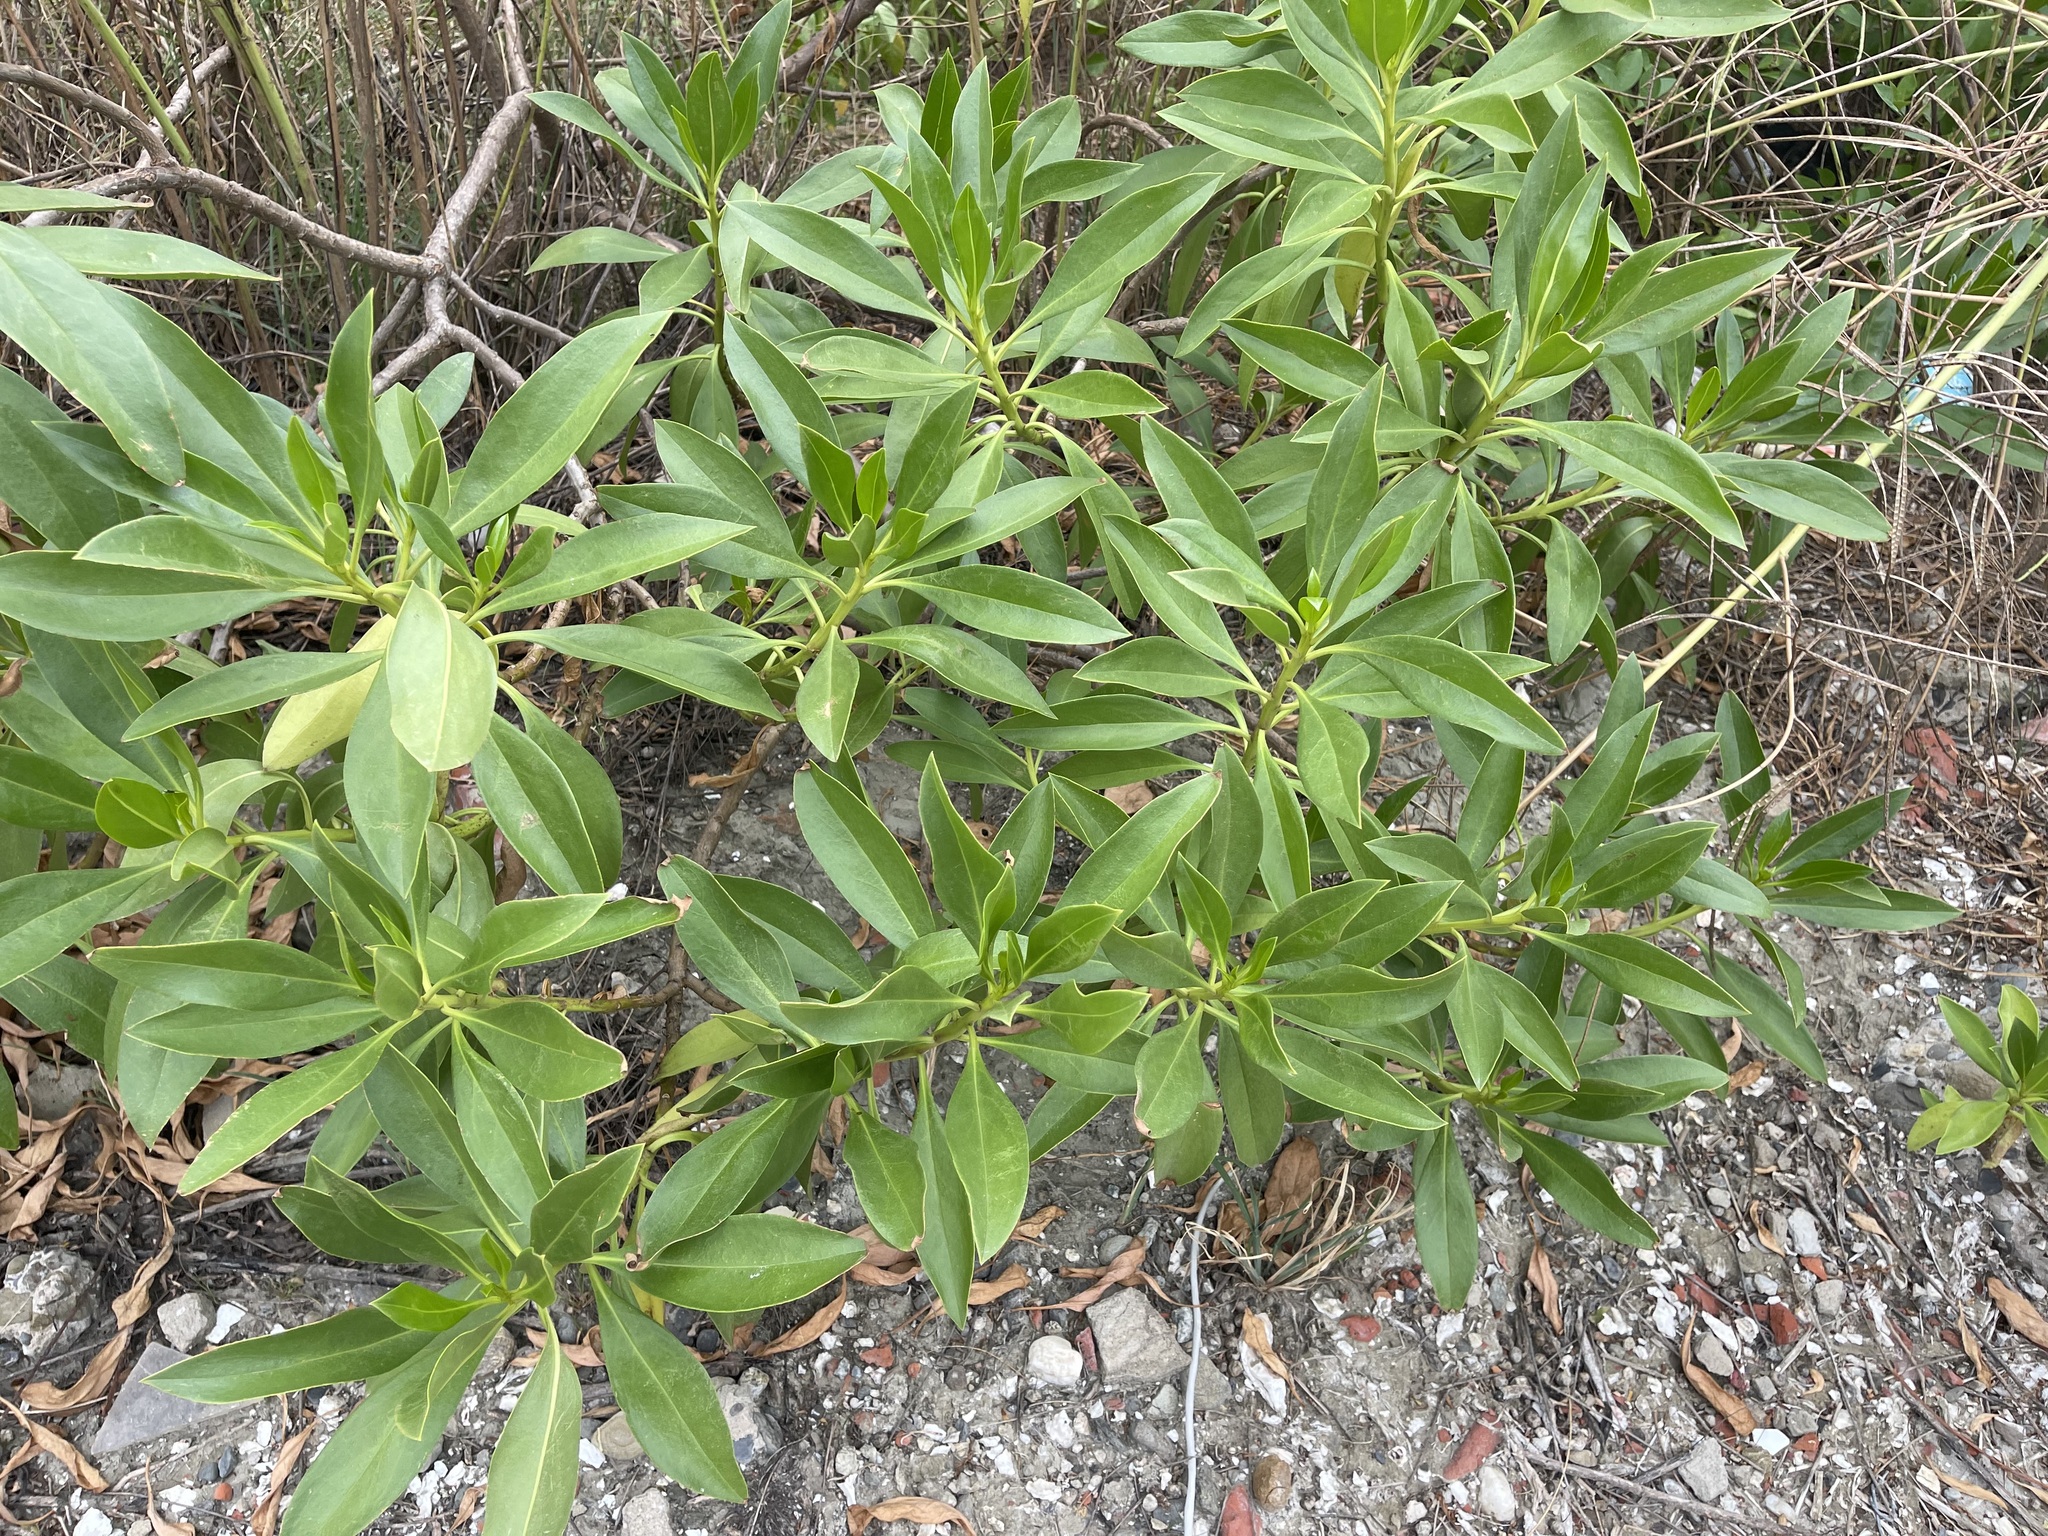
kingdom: Plantae
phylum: Tracheophyta
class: Magnoliopsida
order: Lamiales
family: Scrophulariaceae
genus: Myoporum
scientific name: Myoporum bontioides
